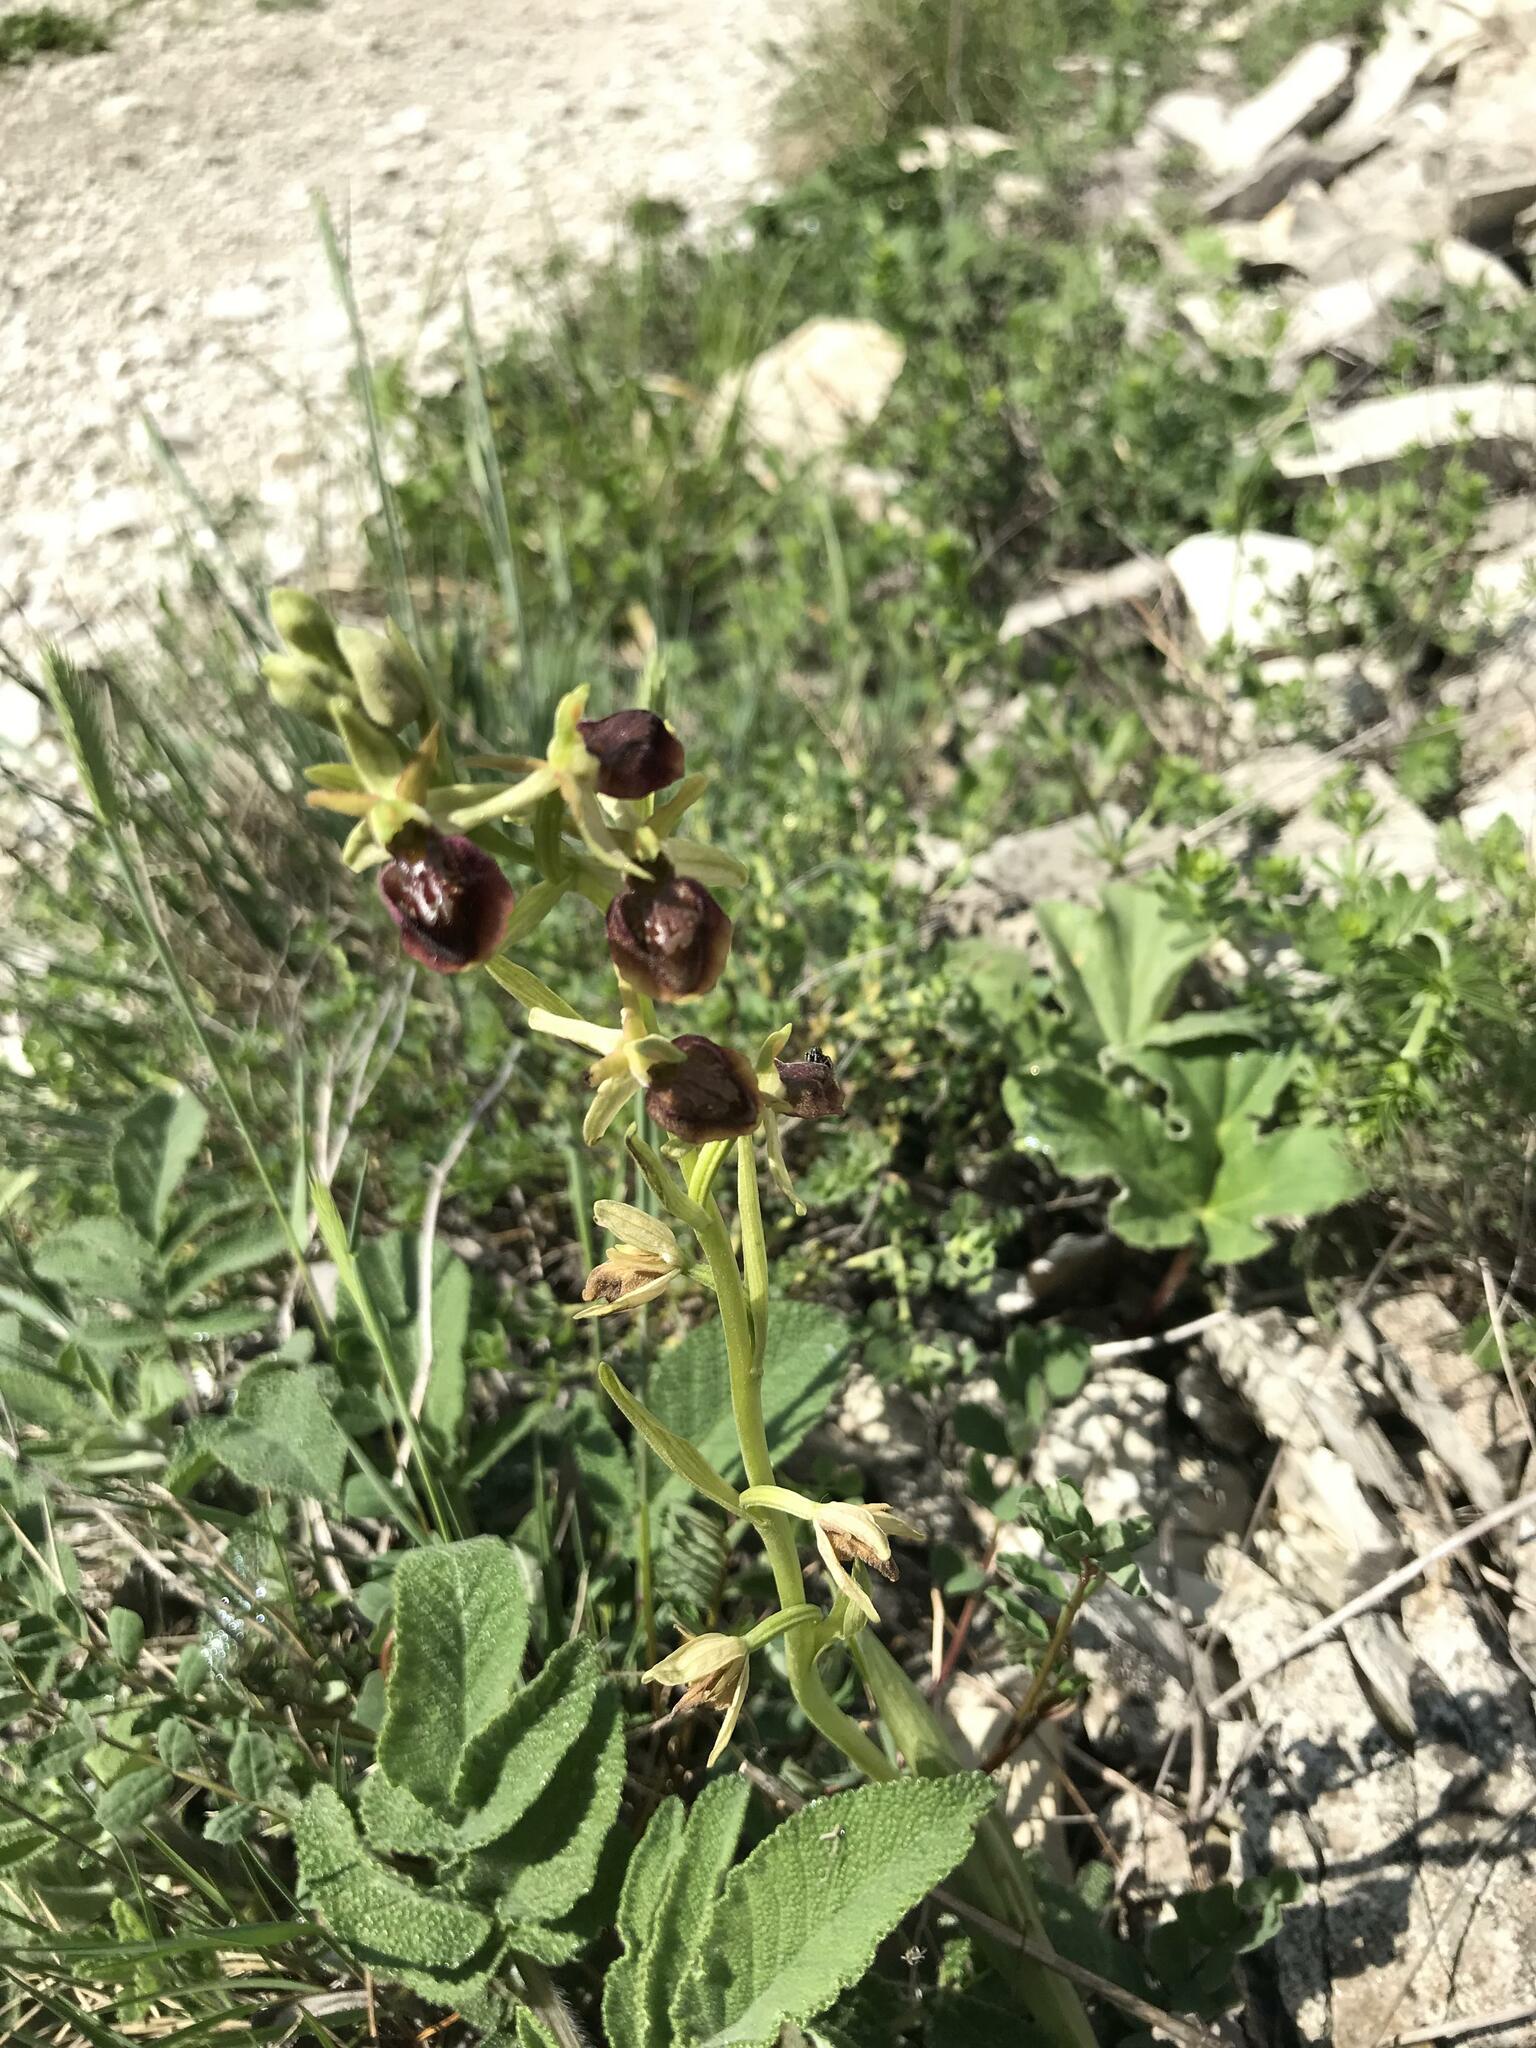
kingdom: Plantae
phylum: Tracheophyta
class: Liliopsida
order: Asparagales
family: Orchidaceae
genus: Ophrys
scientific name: Ophrys sphegodes
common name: Early spider-orchid
